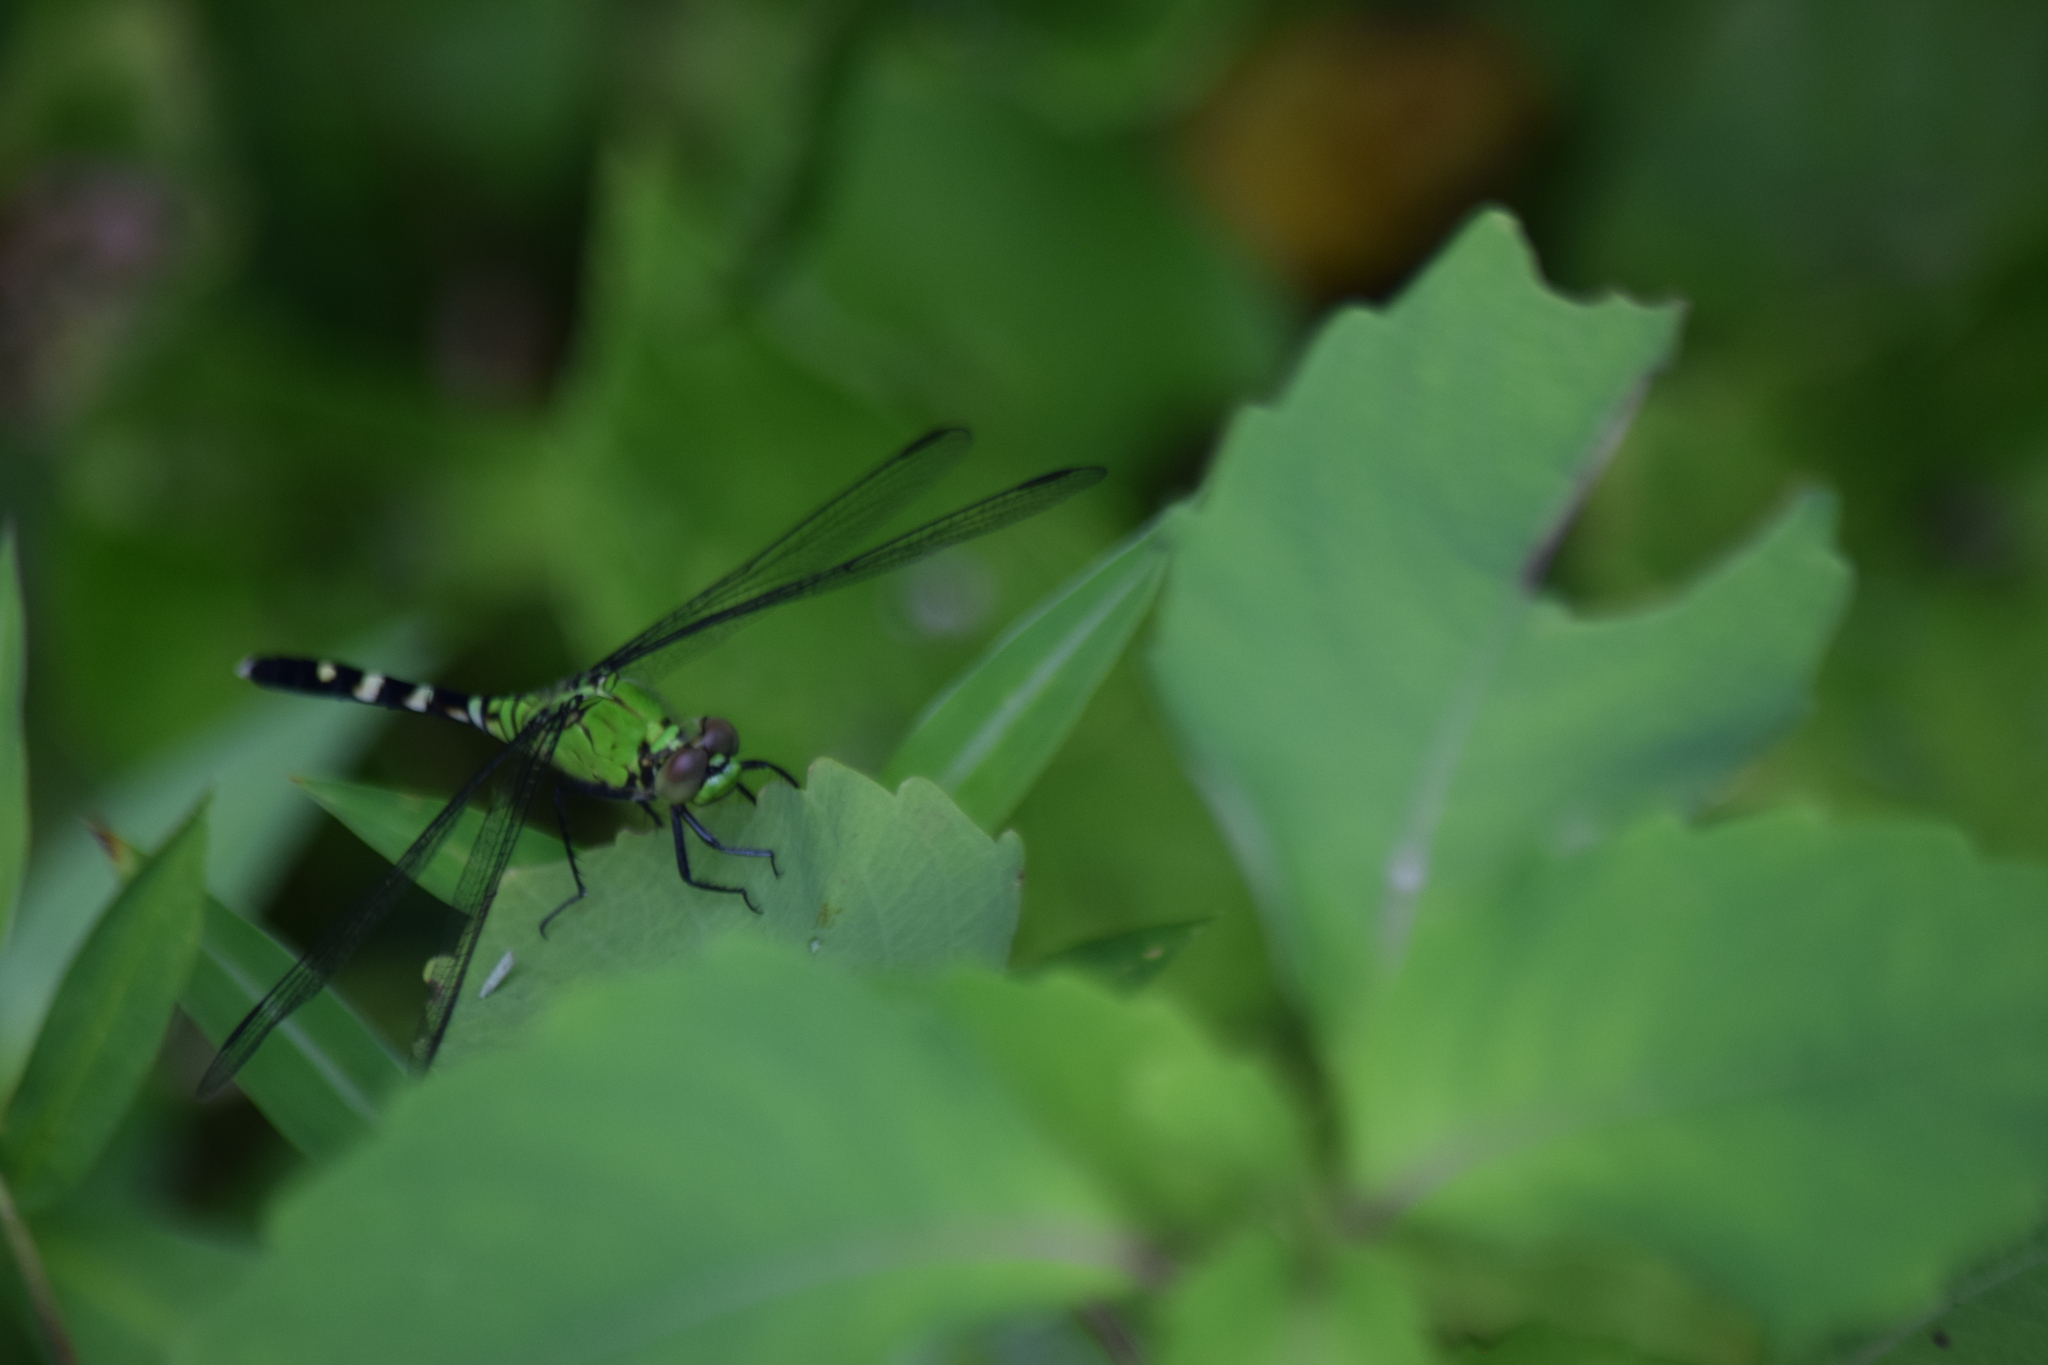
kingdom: Animalia
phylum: Arthropoda
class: Insecta
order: Odonata
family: Libellulidae
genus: Erythemis
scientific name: Erythemis simplicicollis
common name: Eastern pondhawk
